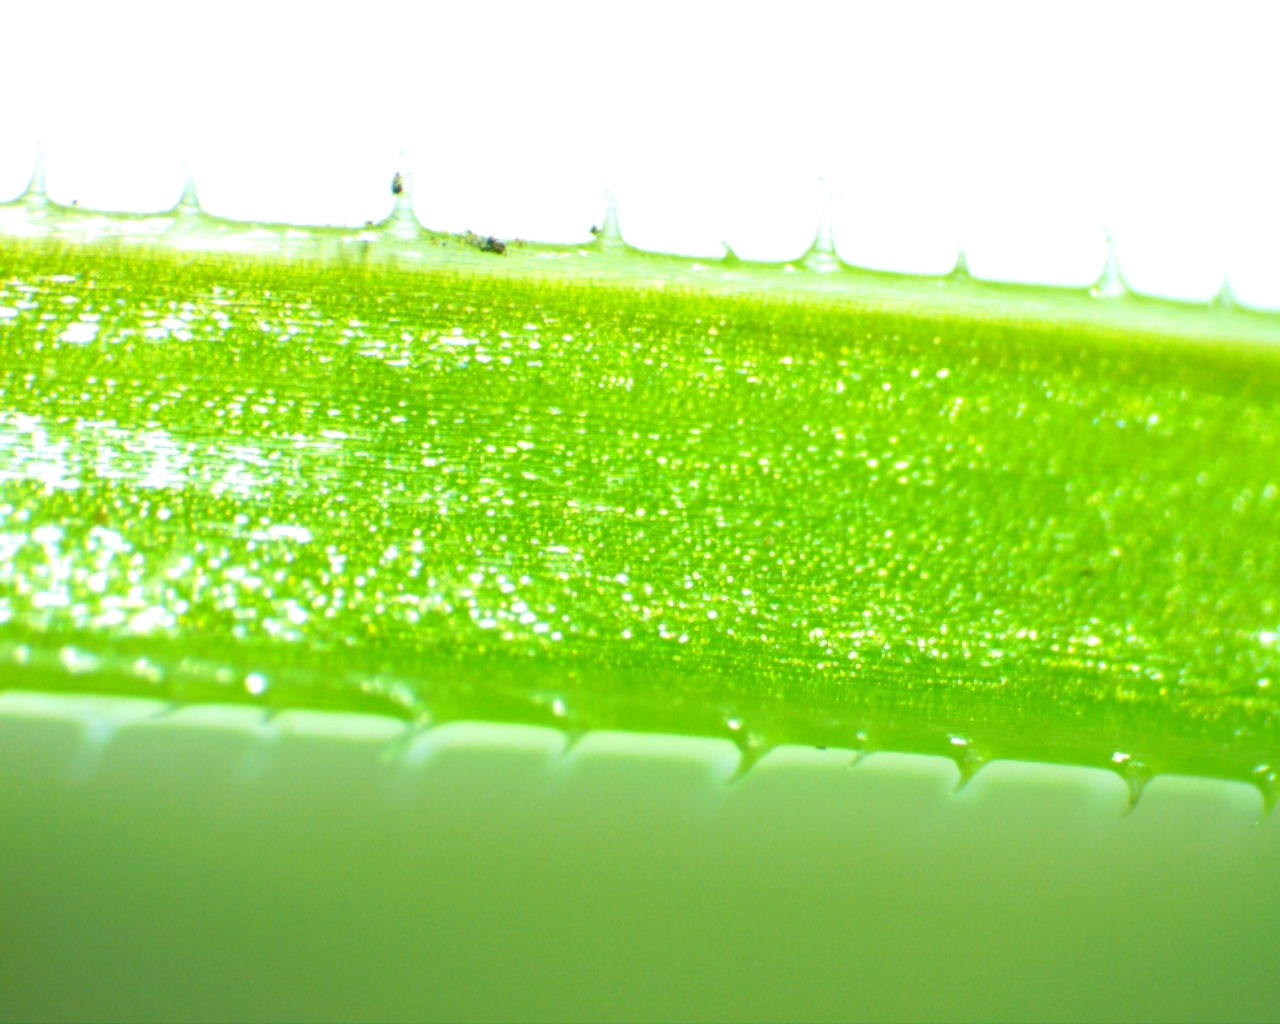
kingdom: Plantae
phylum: Tracheophyta
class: Magnoliopsida
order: Gentianales
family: Rubiaceae
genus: Galium
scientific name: Galium aparine
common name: Cleavers
